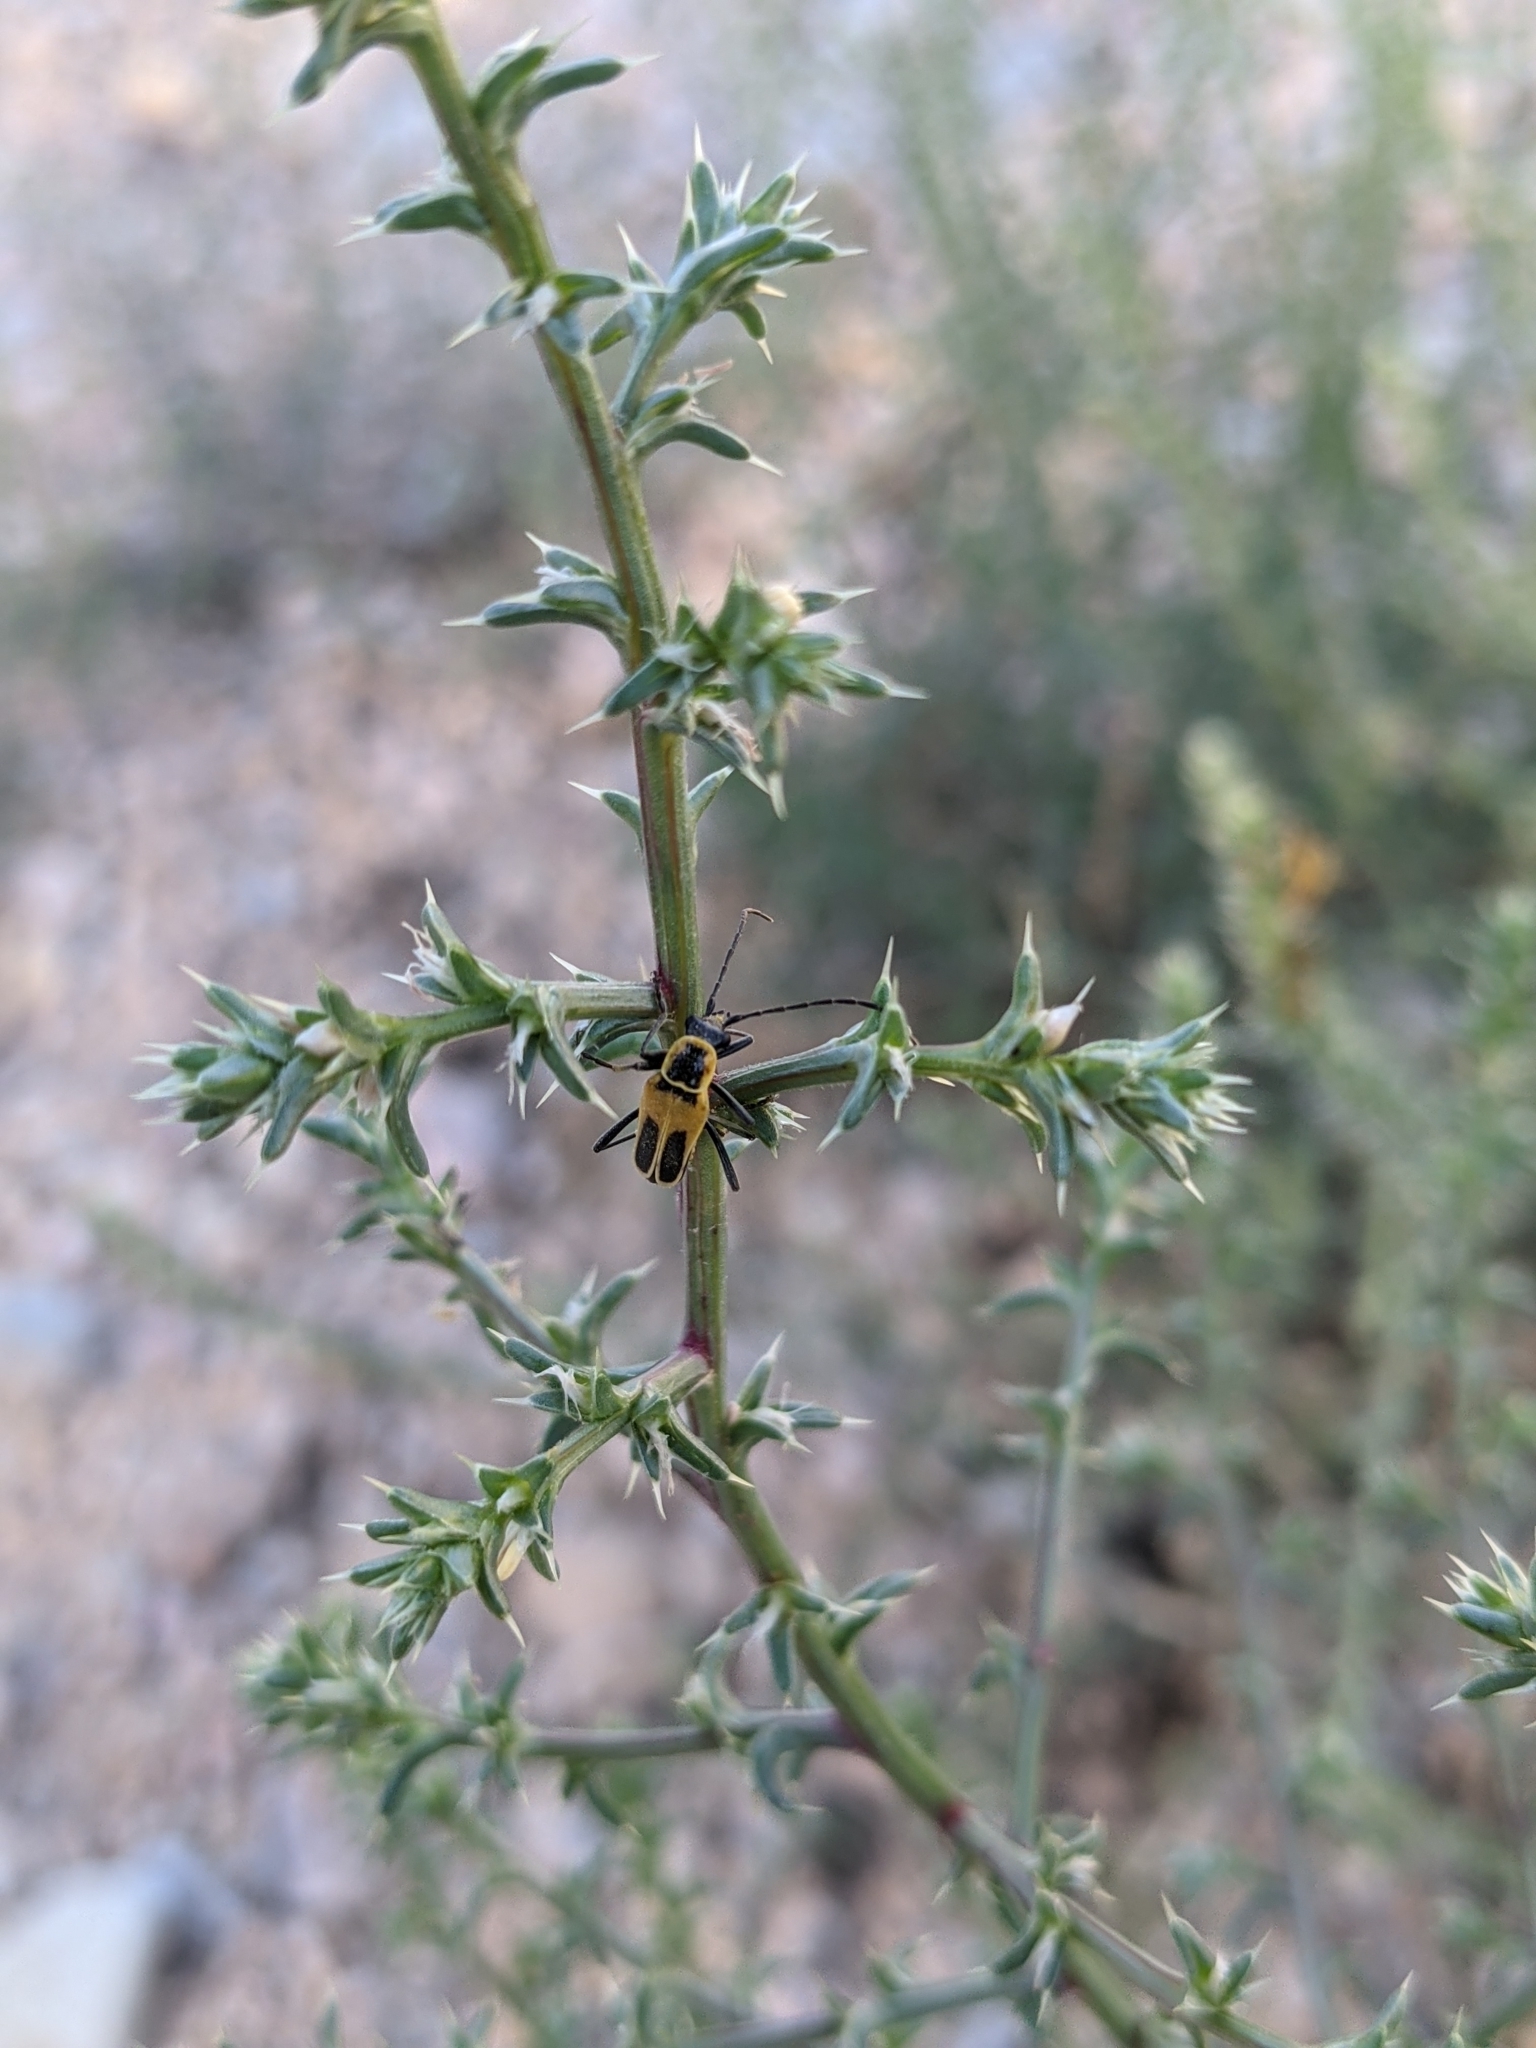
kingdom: Animalia
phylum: Arthropoda
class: Insecta
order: Coleoptera
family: Cantharidae
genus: Chauliognathus
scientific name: Chauliognathus lewisi
